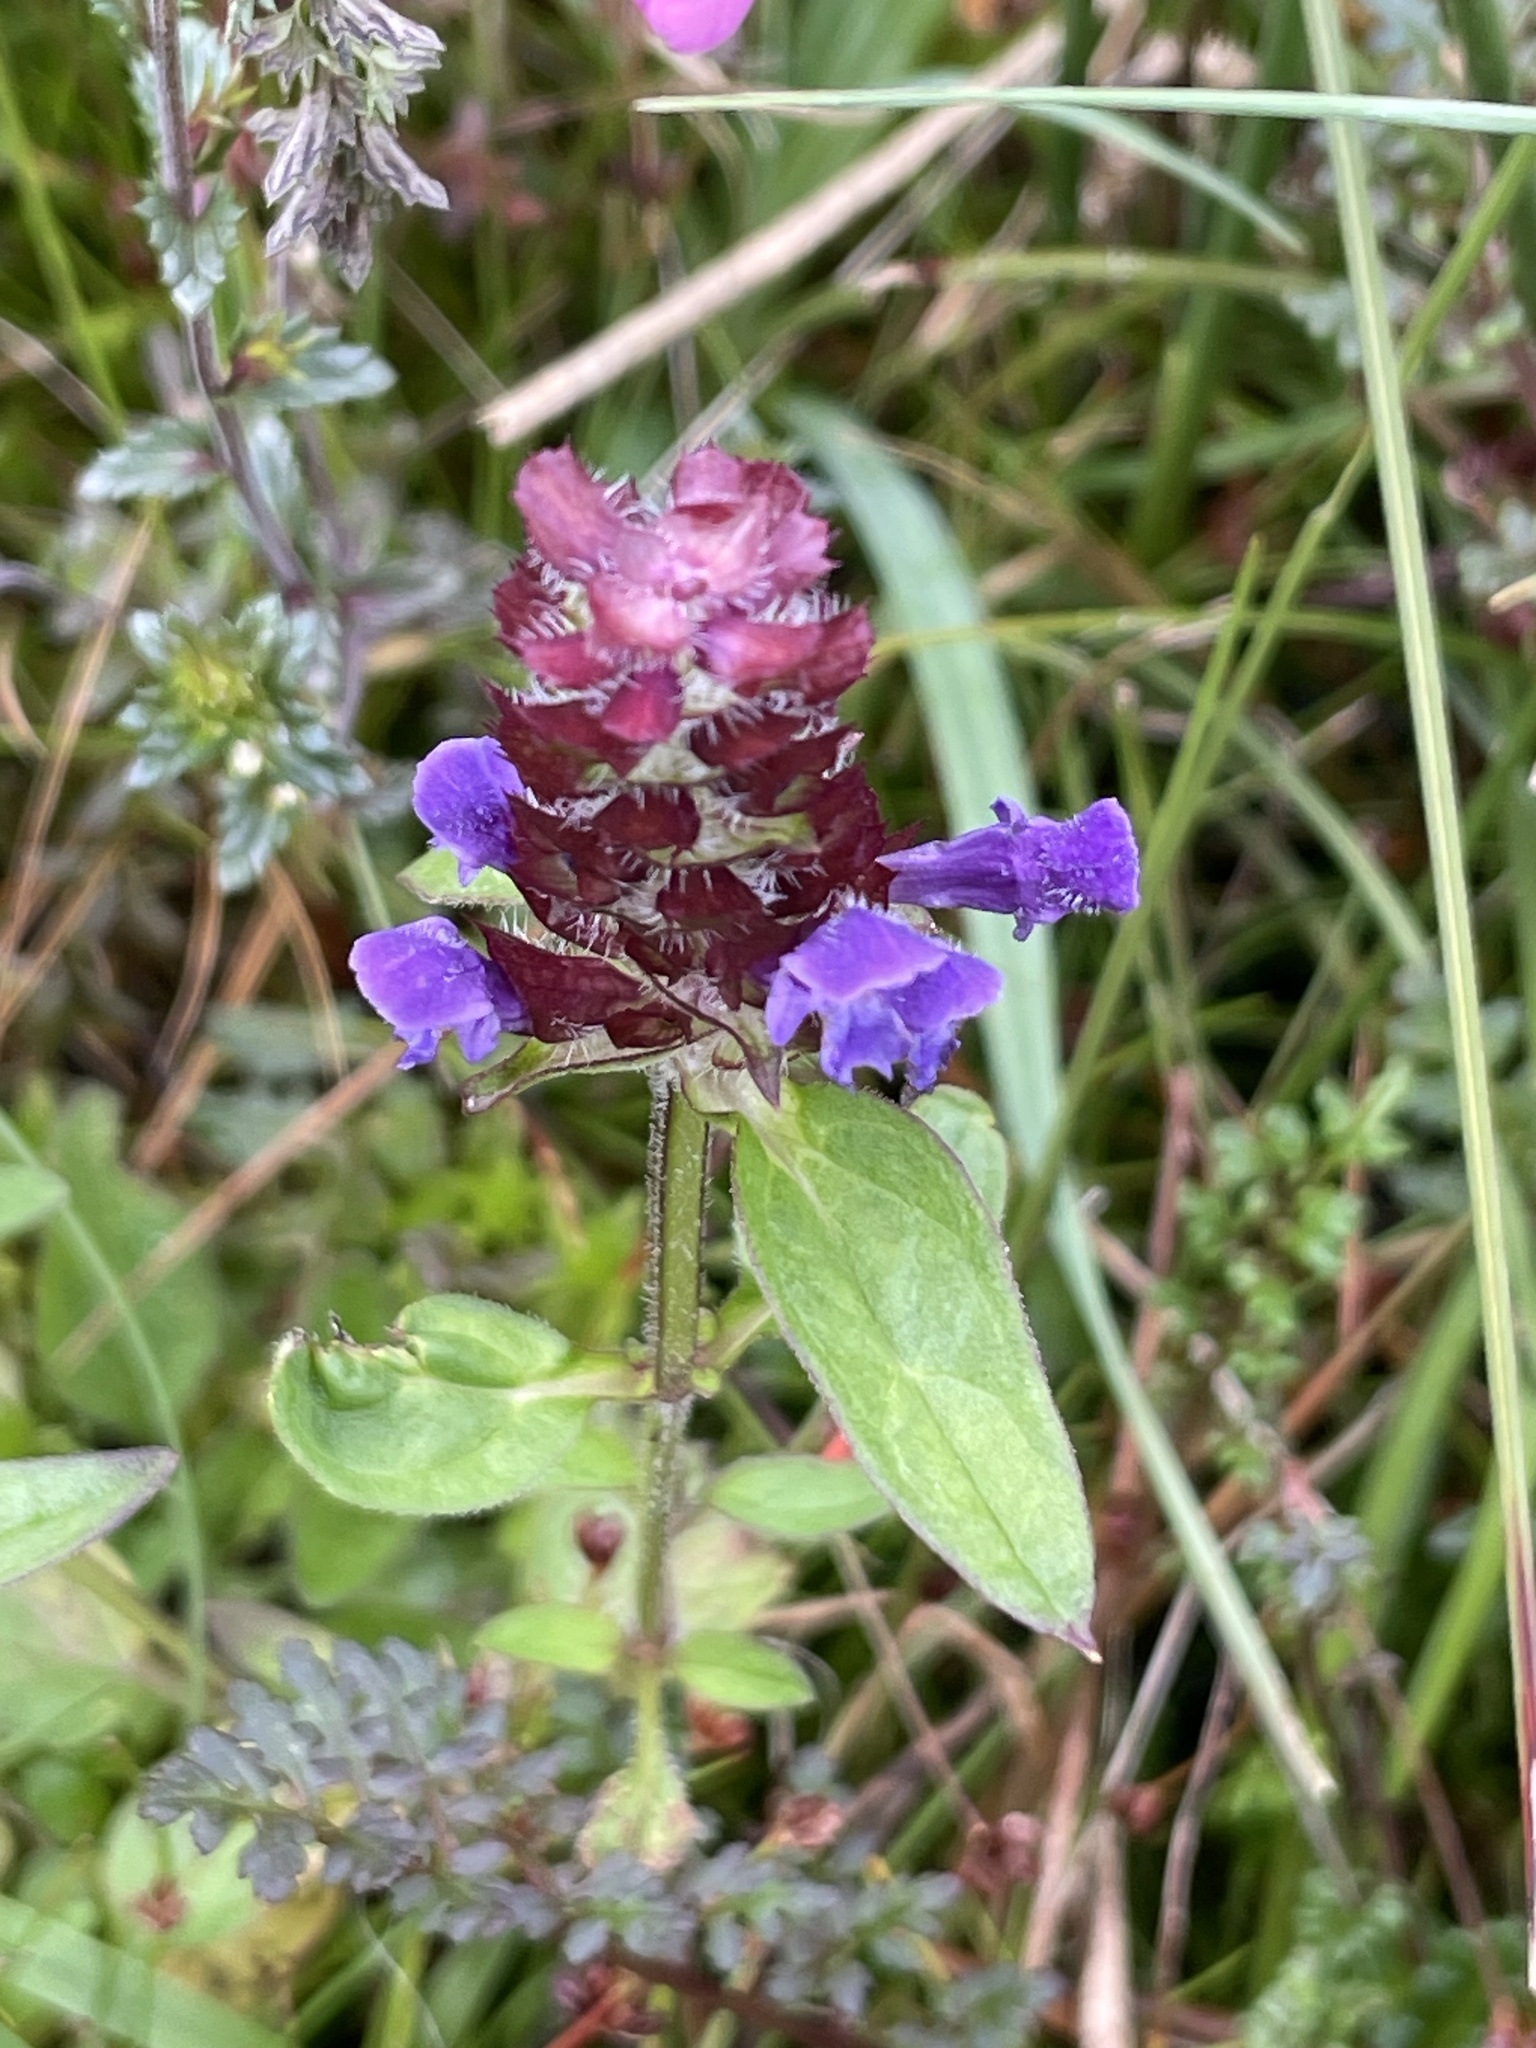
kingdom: Plantae
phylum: Tracheophyta
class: Magnoliopsida
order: Lamiales
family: Lamiaceae
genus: Prunella
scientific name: Prunella vulgaris
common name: Heal-all
